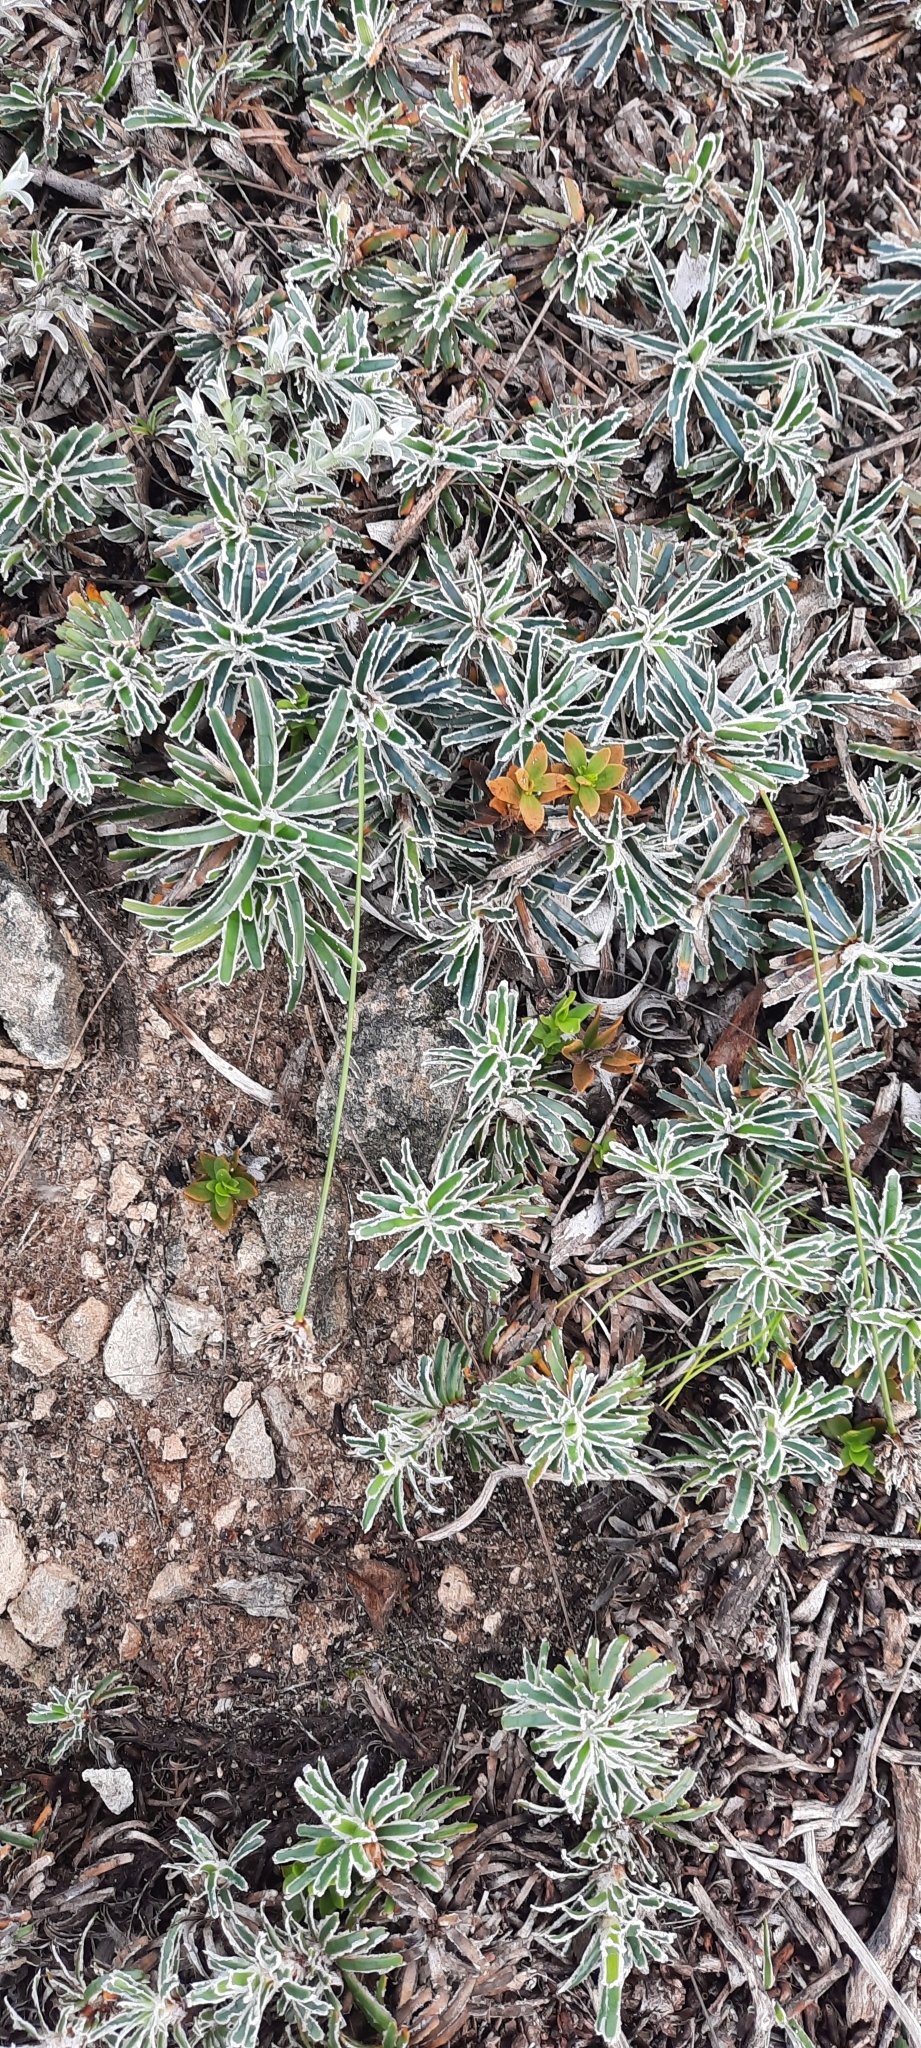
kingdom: Plantae
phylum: Tracheophyta
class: Liliopsida
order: Poales
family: Cyperaceae
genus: Ficinia
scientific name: Ficinia truncata
